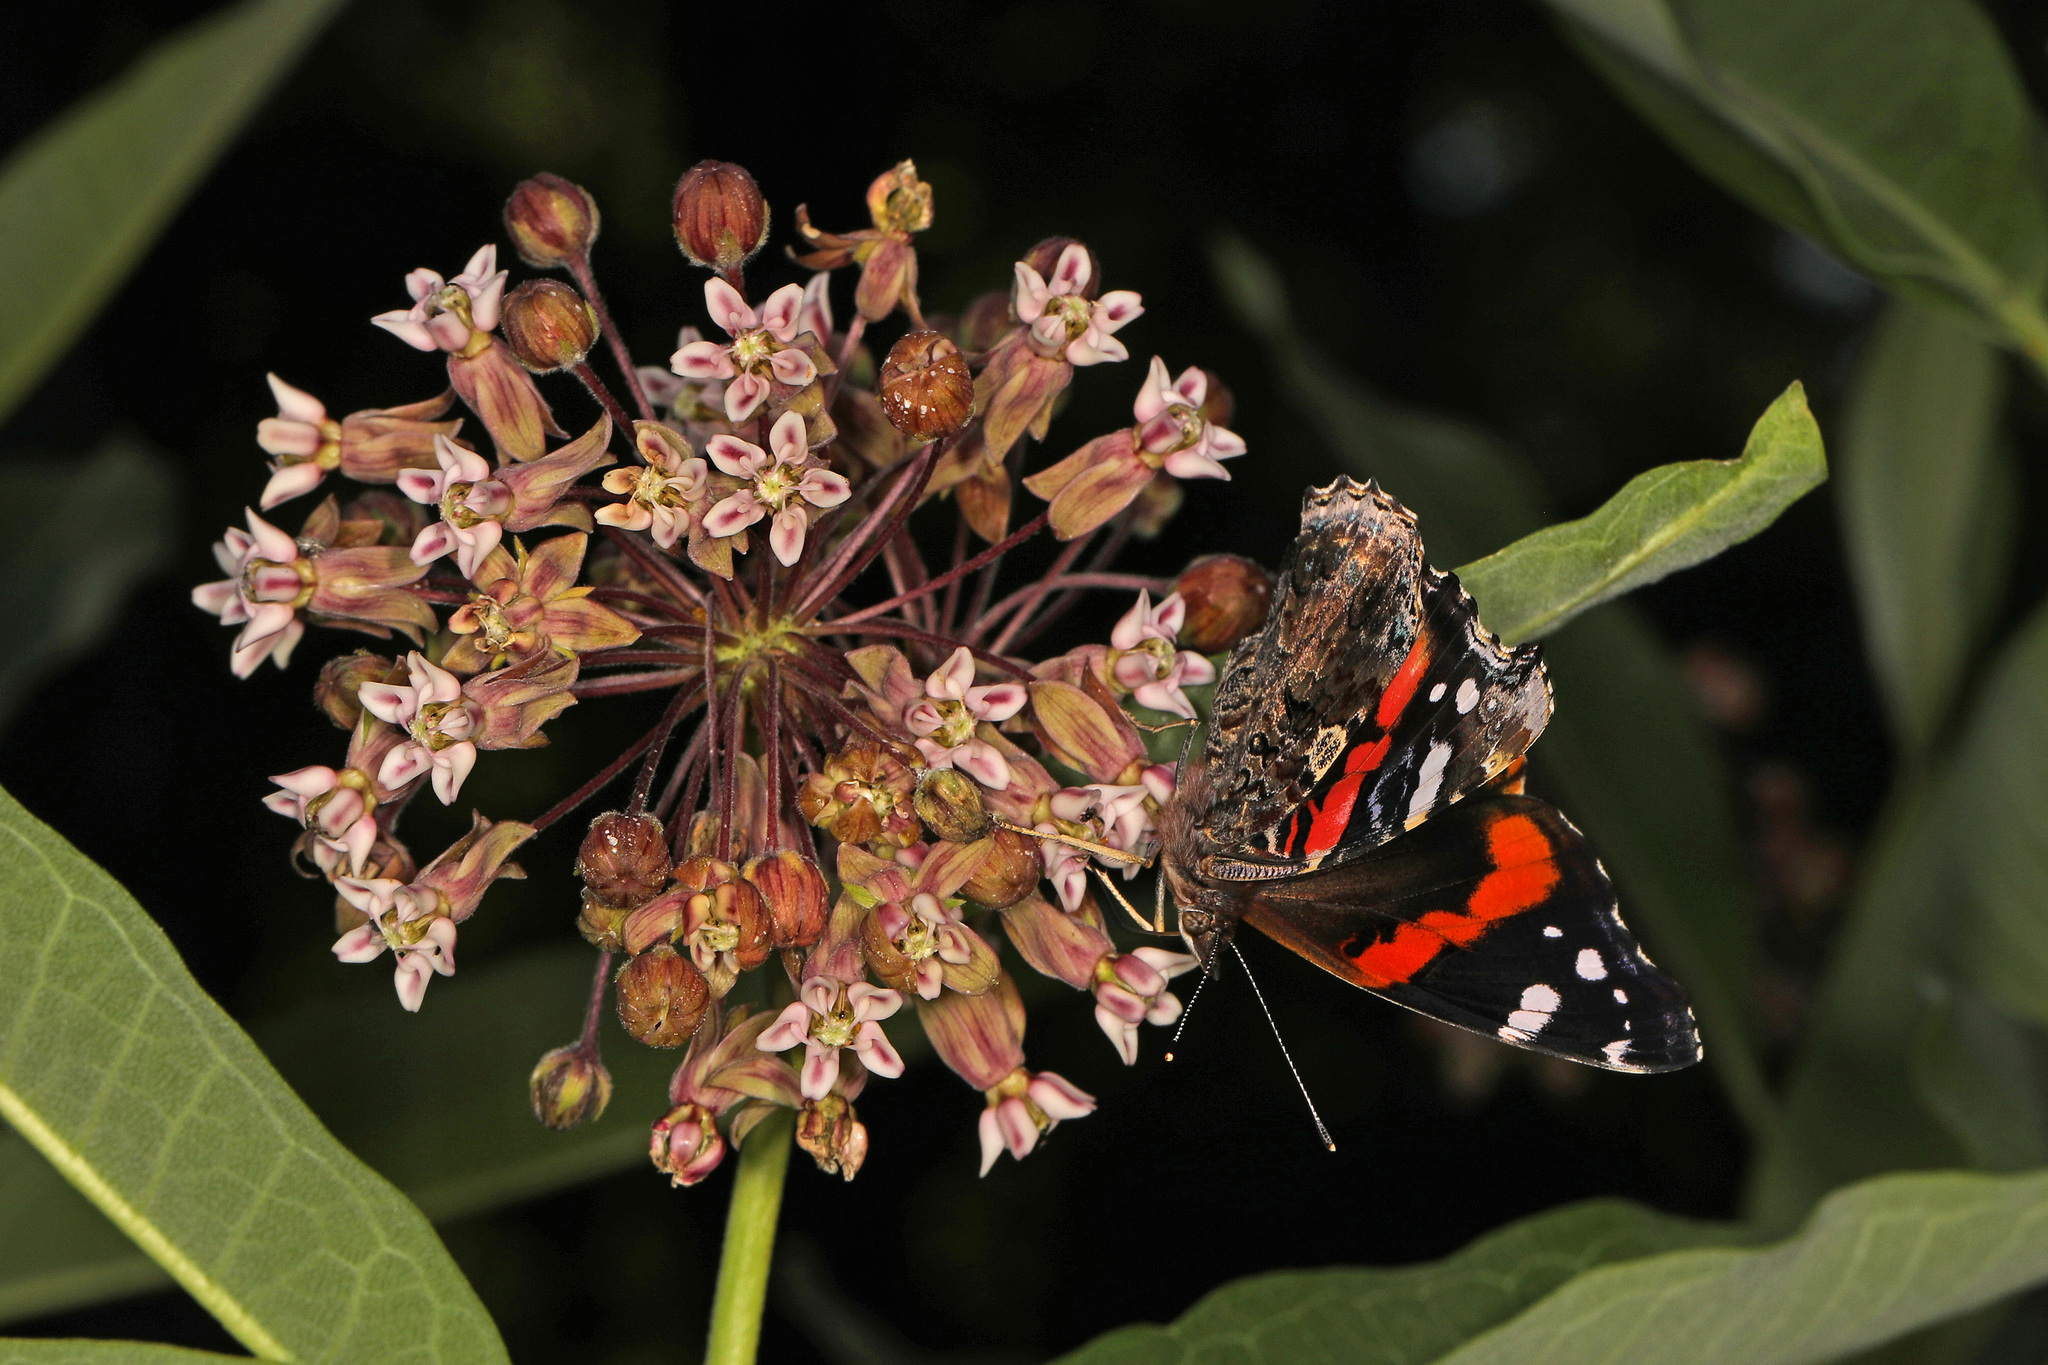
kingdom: Animalia
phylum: Arthropoda
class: Insecta
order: Lepidoptera
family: Nymphalidae
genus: Vanessa
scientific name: Vanessa atalanta
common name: Red admiral
